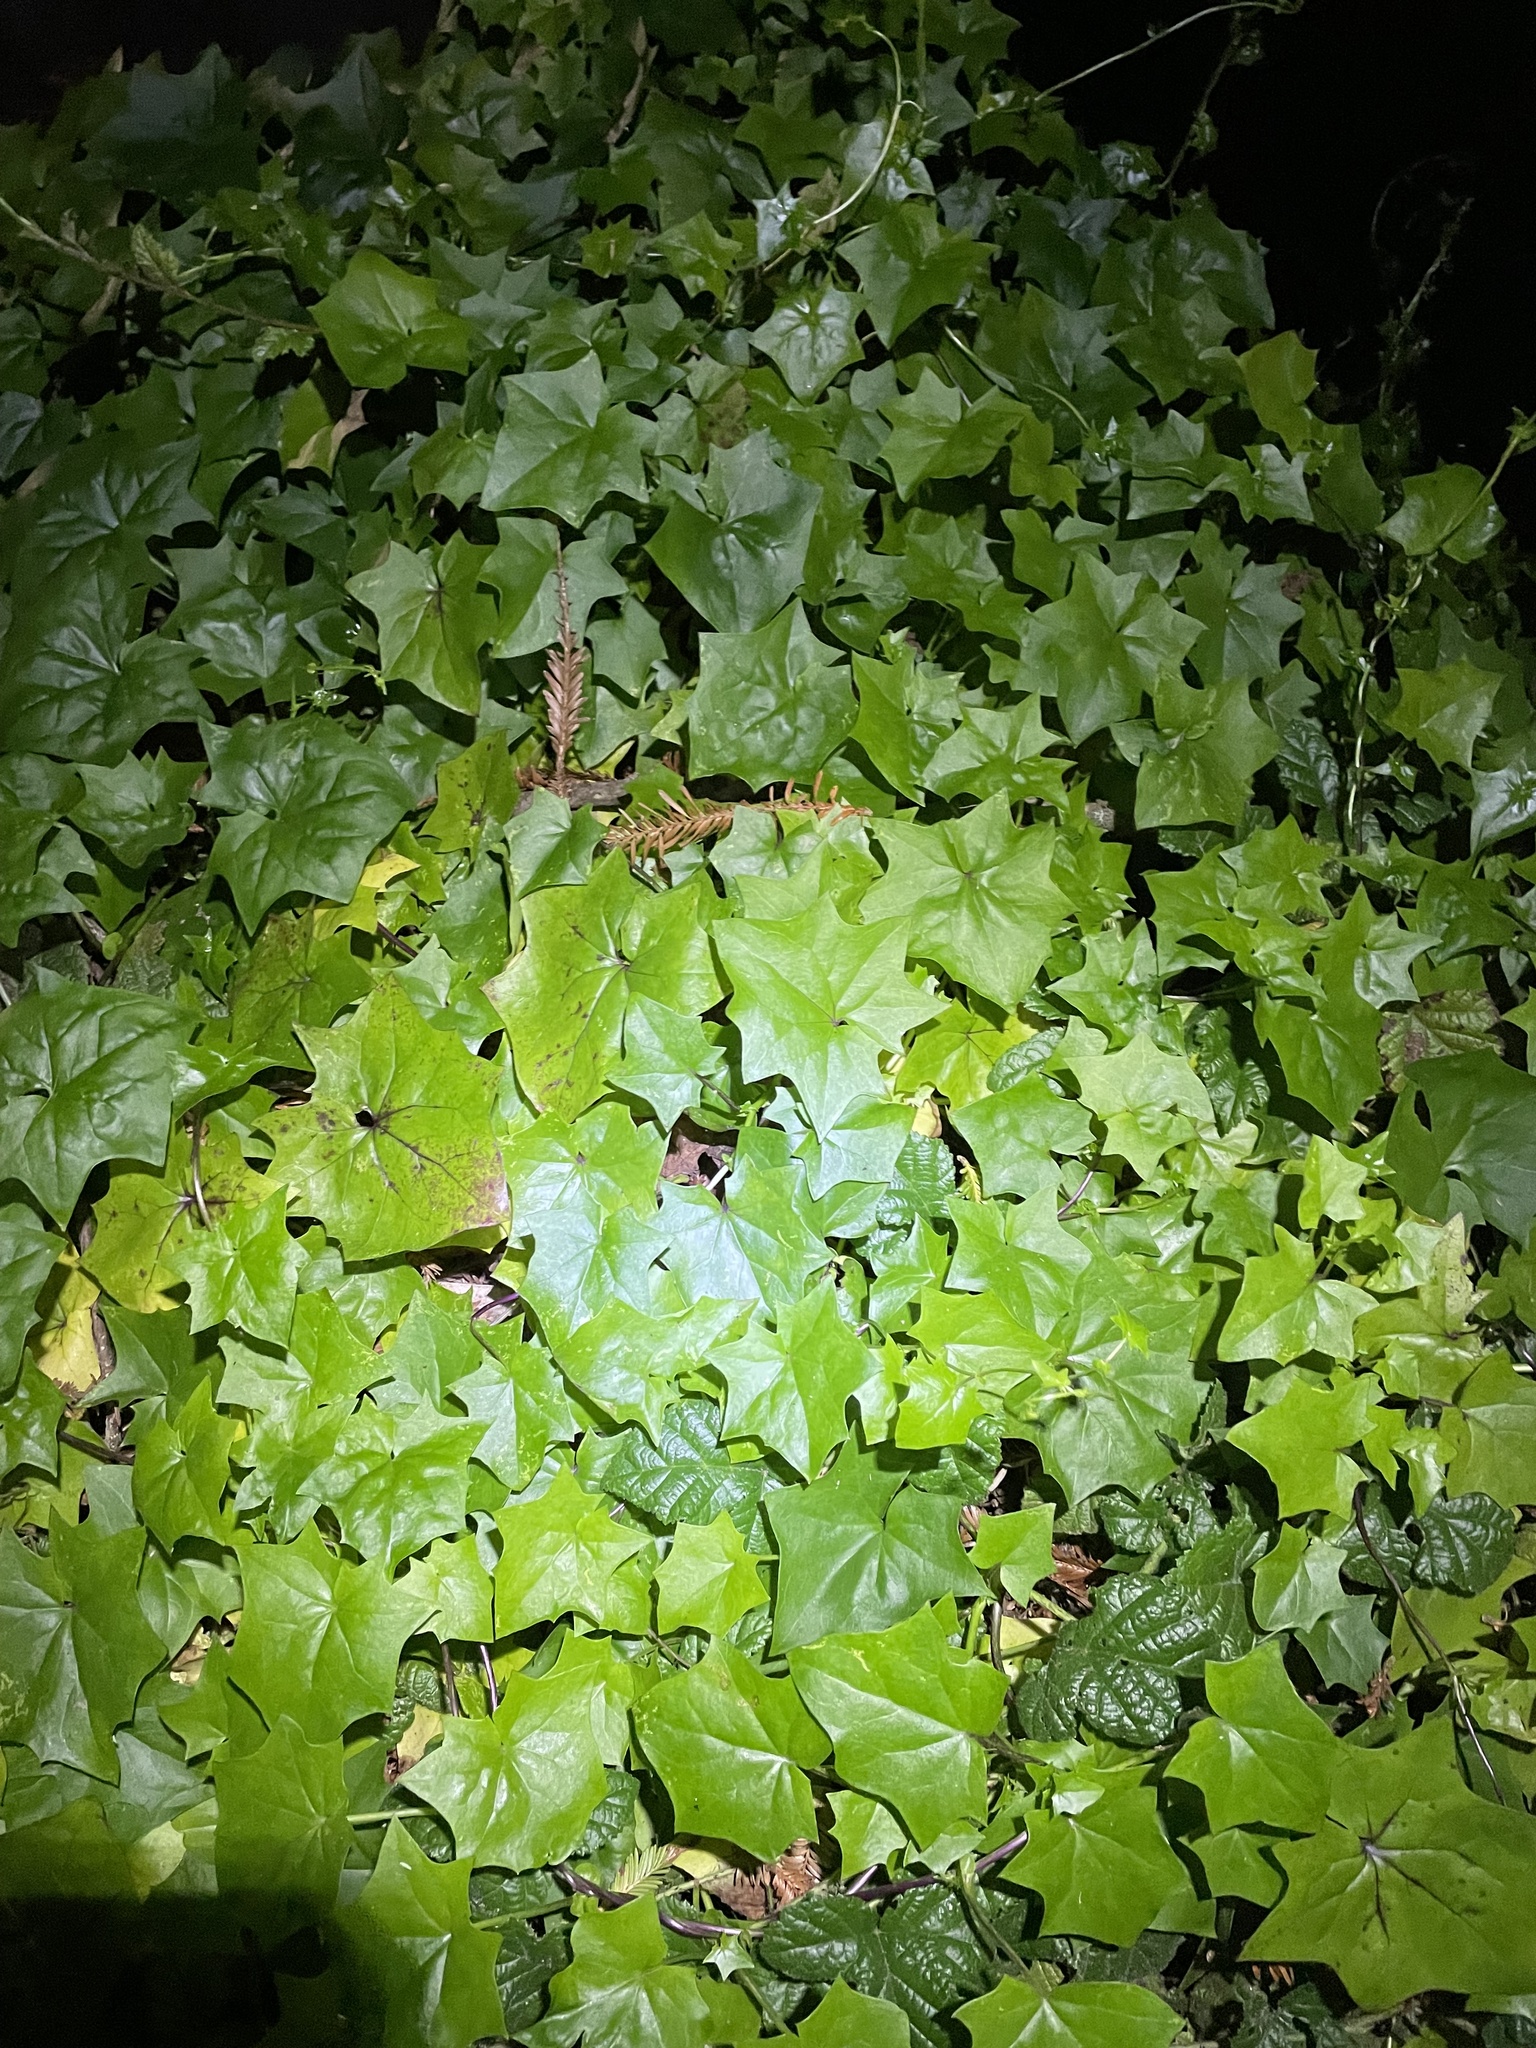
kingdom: Plantae
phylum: Tracheophyta
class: Magnoliopsida
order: Asterales
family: Asteraceae
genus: Delairea
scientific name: Delairea odorata
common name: Cape-ivy
